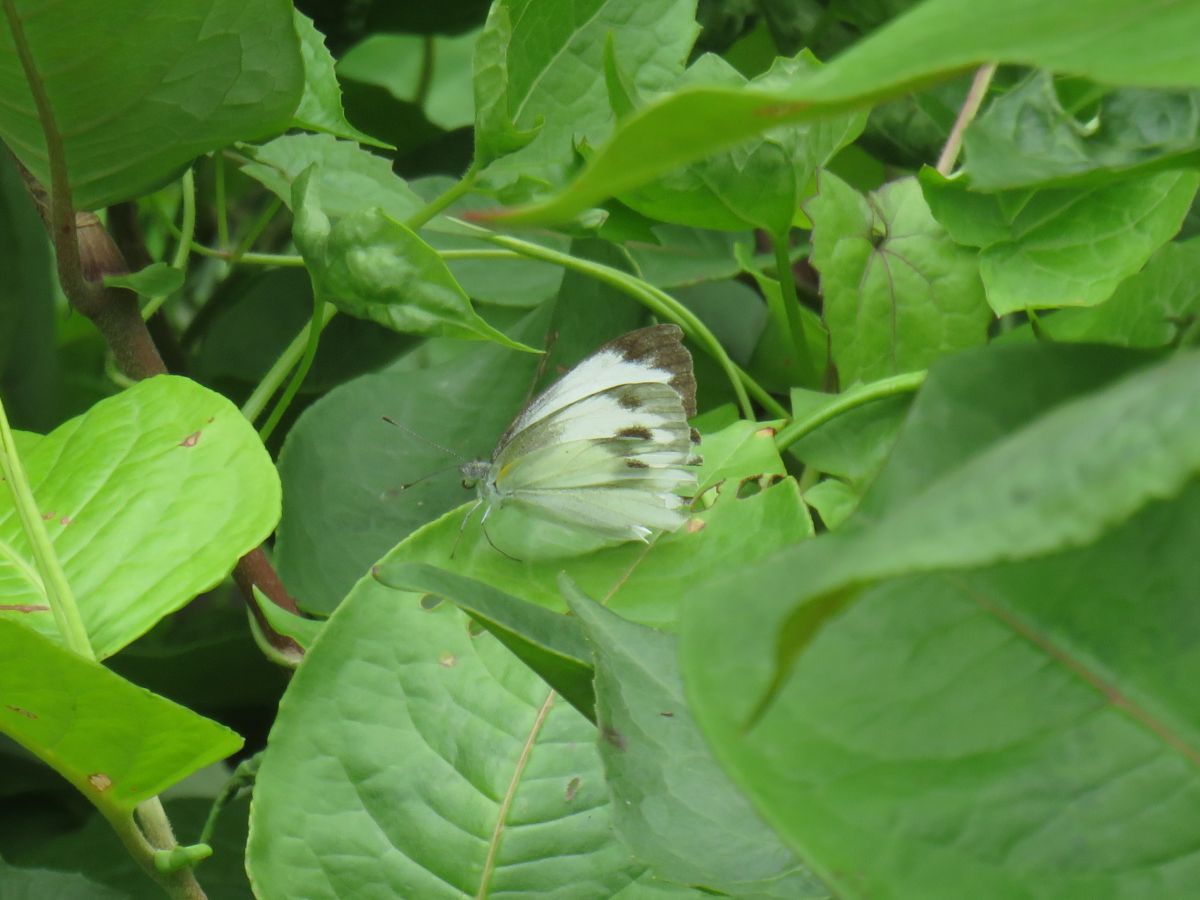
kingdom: Animalia
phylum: Arthropoda
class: Insecta
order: Lepidoptera
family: Pieridae
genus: Pieris
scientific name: Pieris canidia
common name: Indian cabbage white
